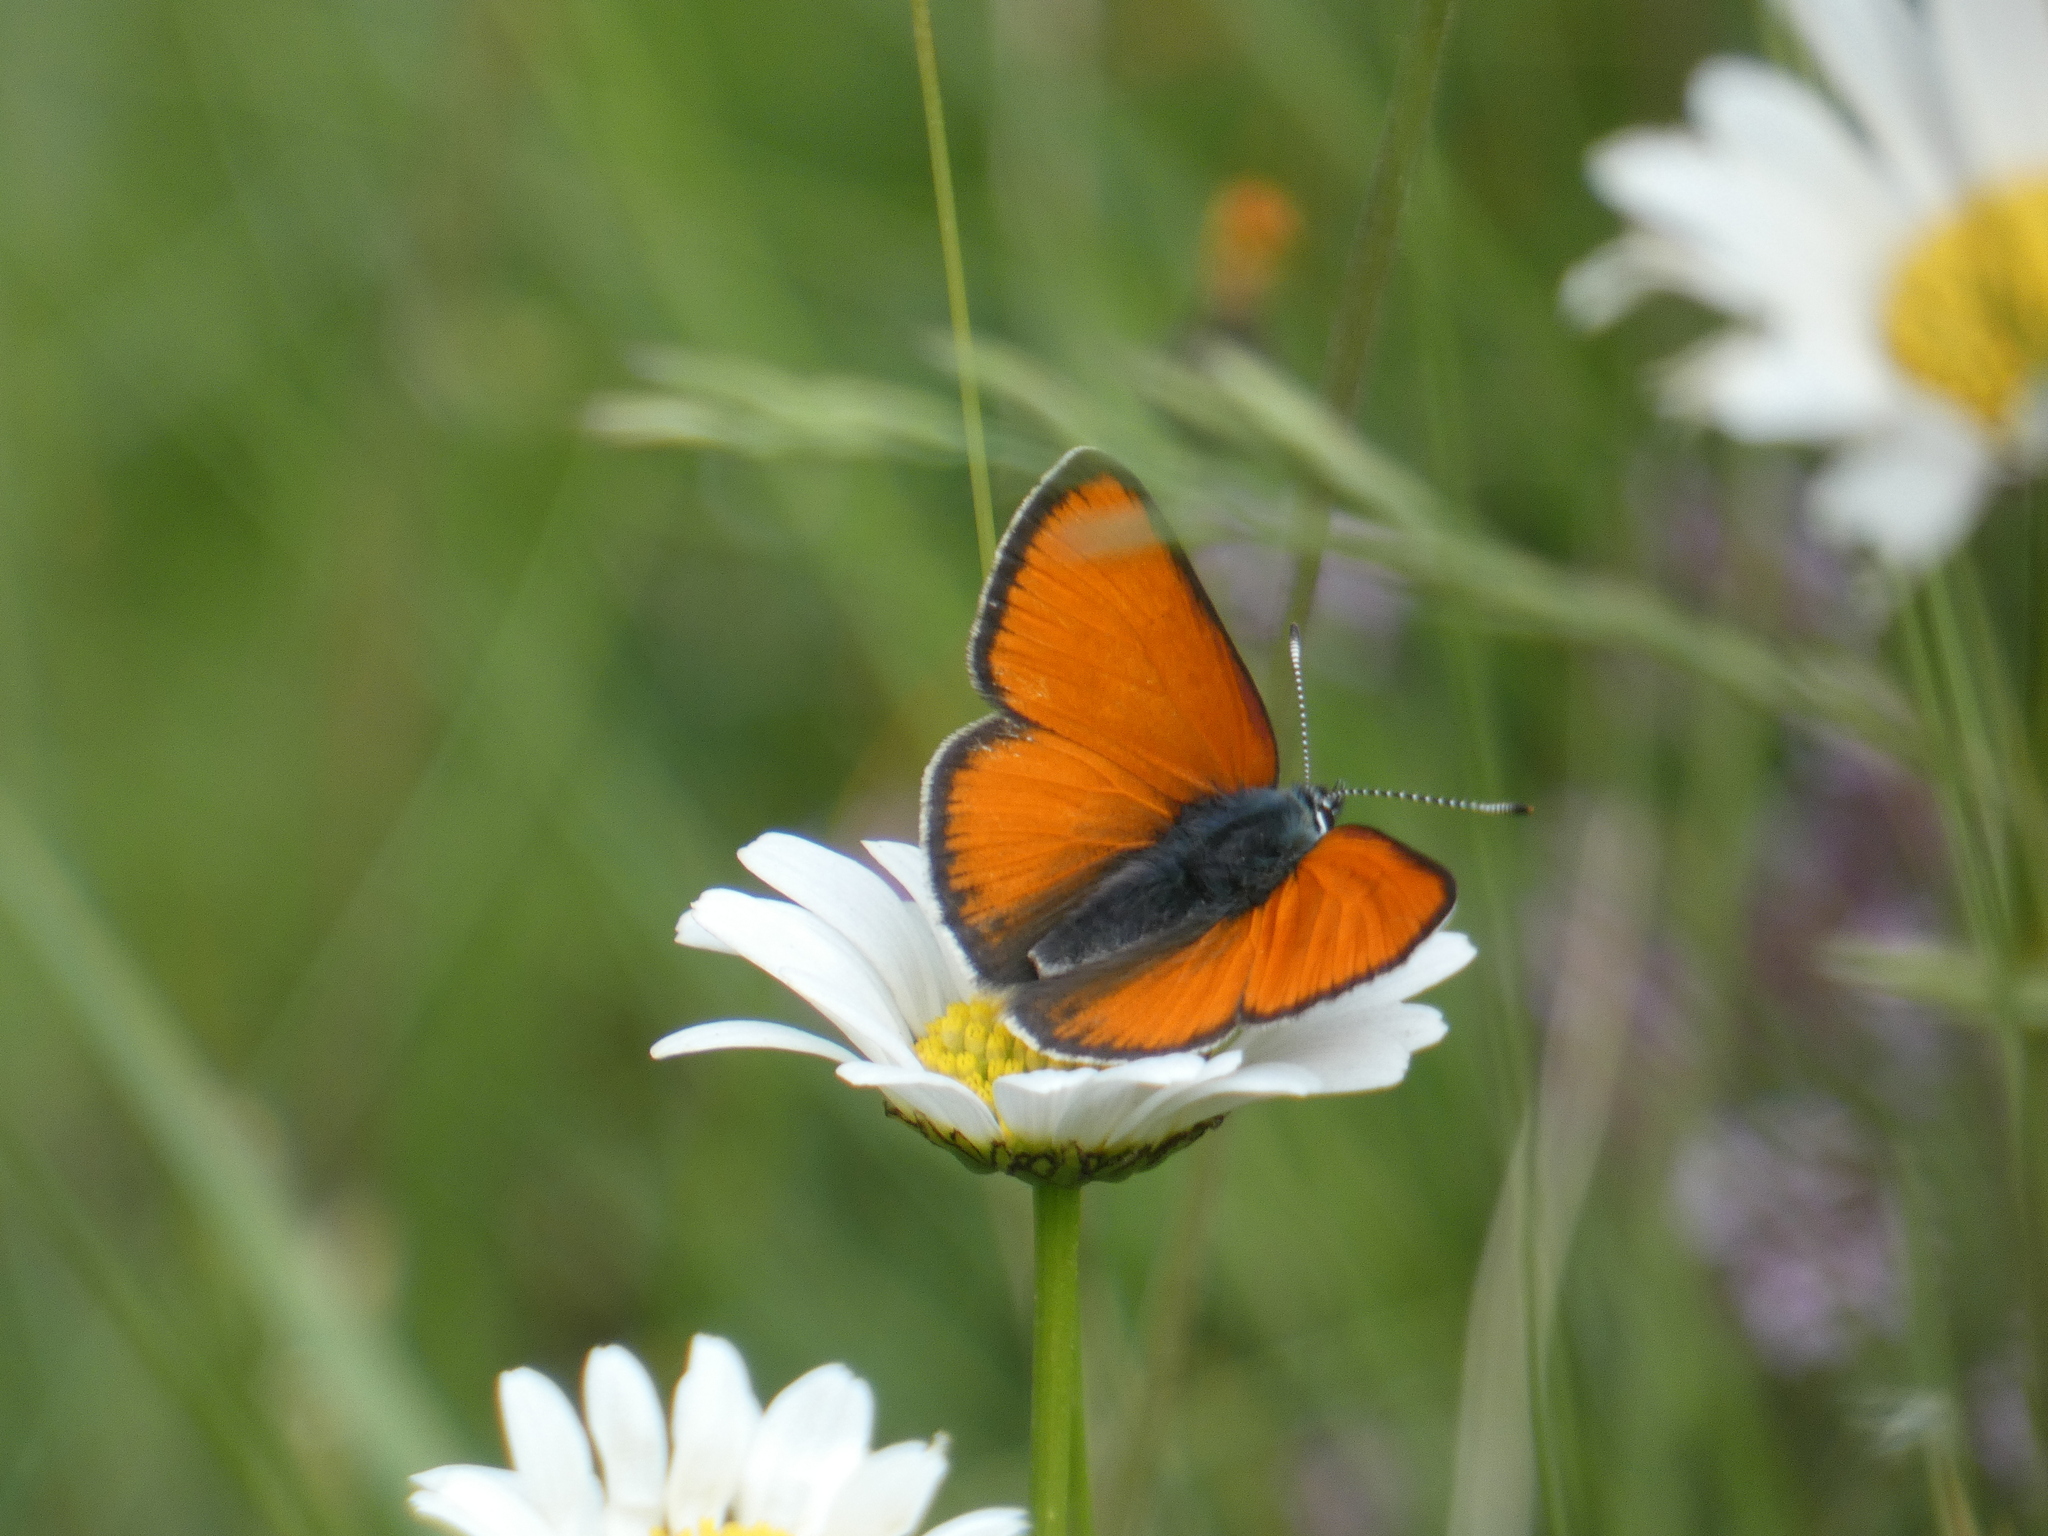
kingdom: Animalia
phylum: Arthropoda
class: Insecta
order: Lepidoptera
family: Lycaenidae
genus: Palaeochrysophanus
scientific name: Palaeochrysophanus hippothoe
